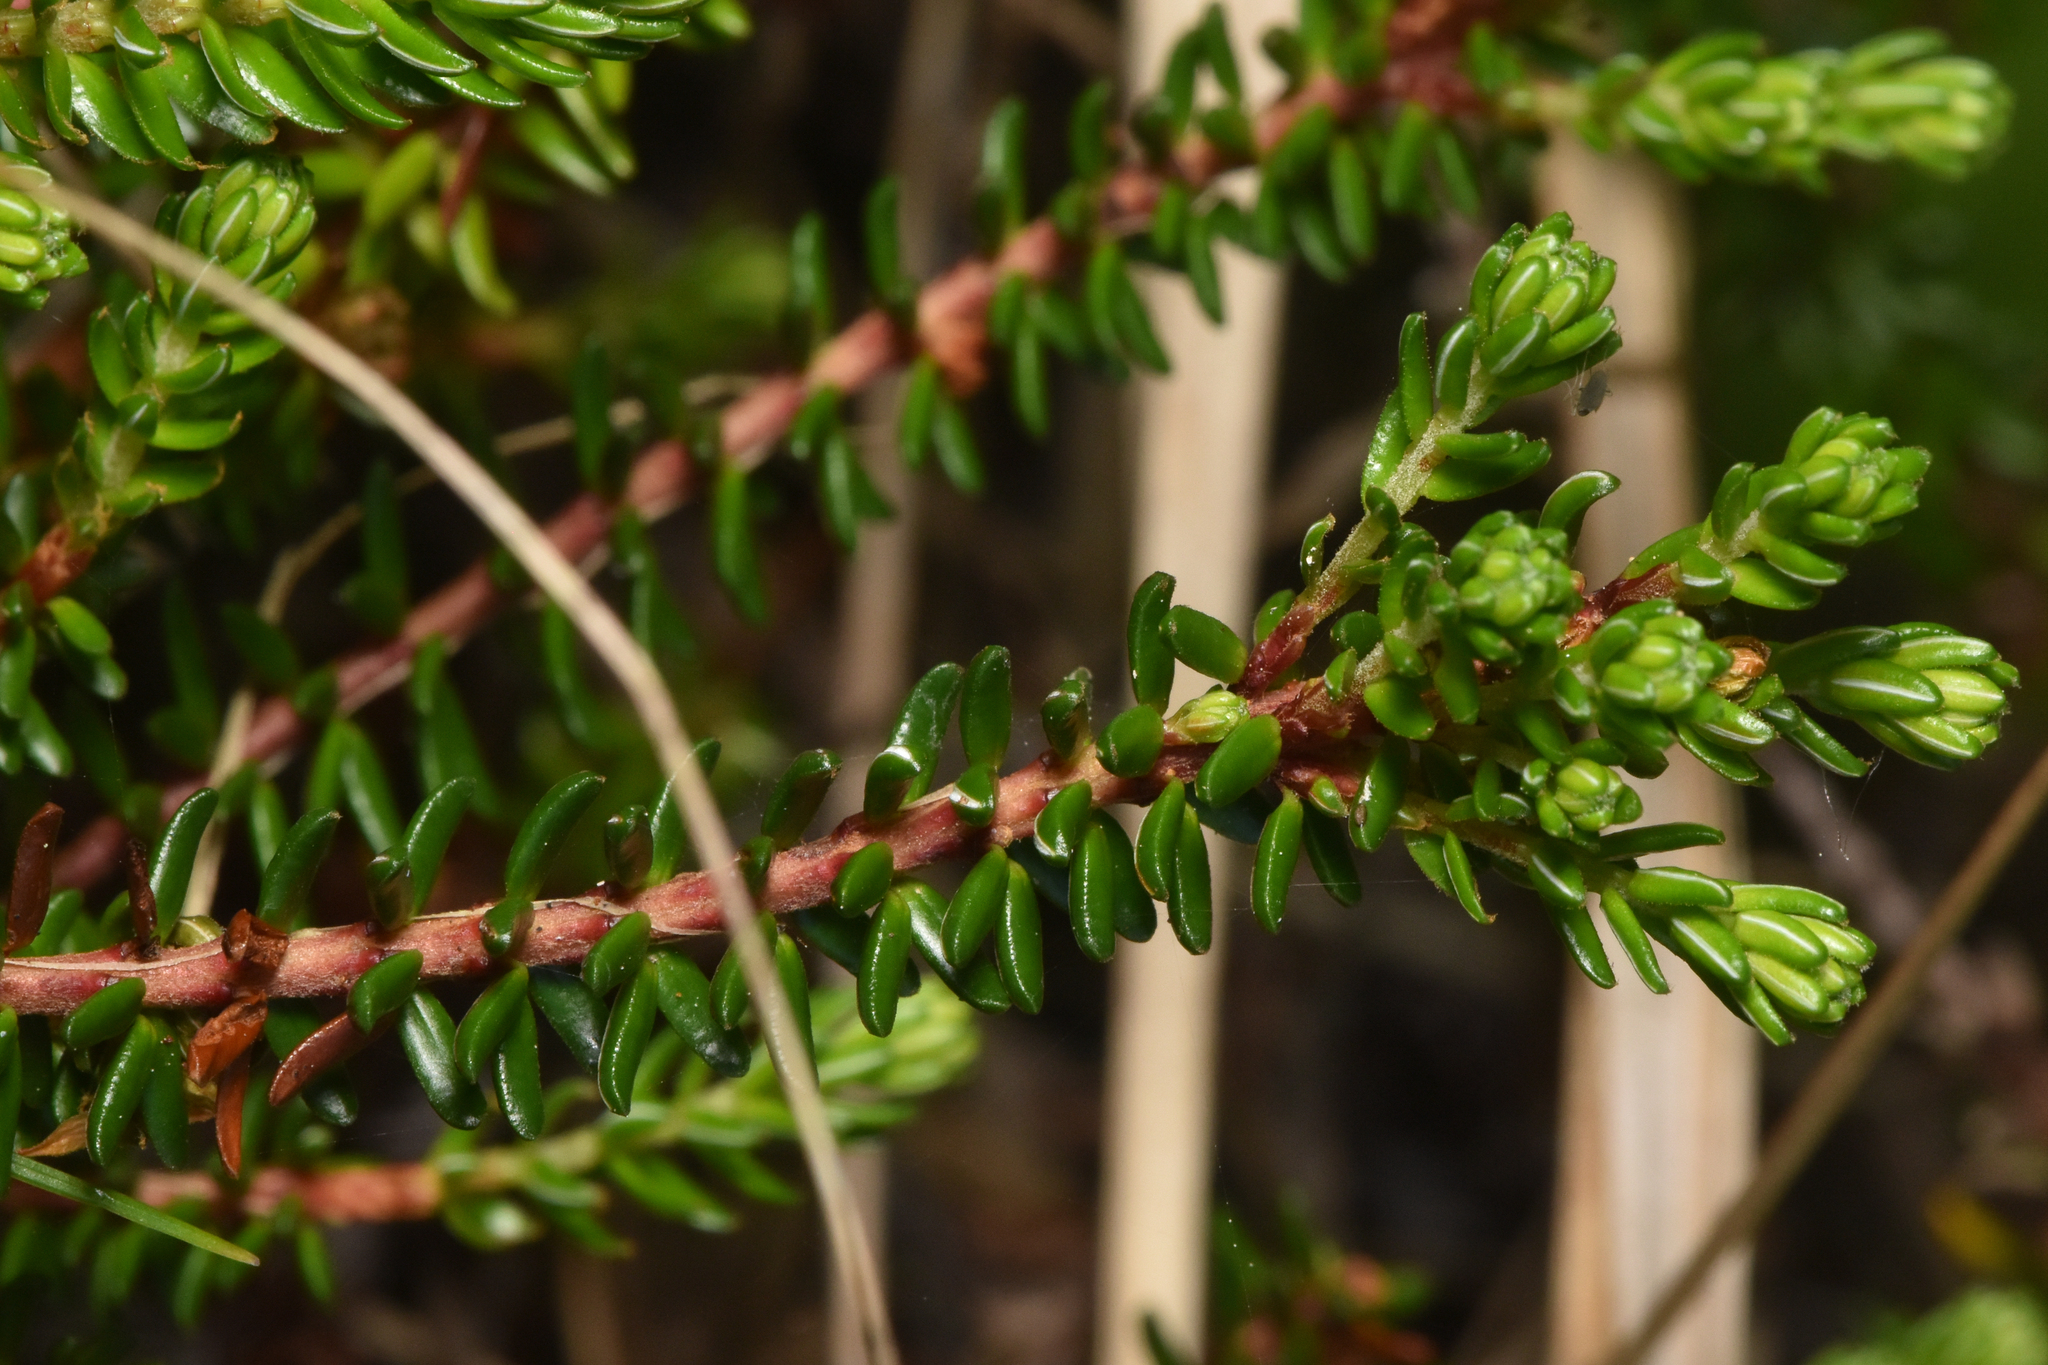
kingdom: Plantae
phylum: Tracheophyta
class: Magnoliopsida
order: Ericales
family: Ericaceae
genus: Empetrum
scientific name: Empetrum nigrum
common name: Black crowberry
